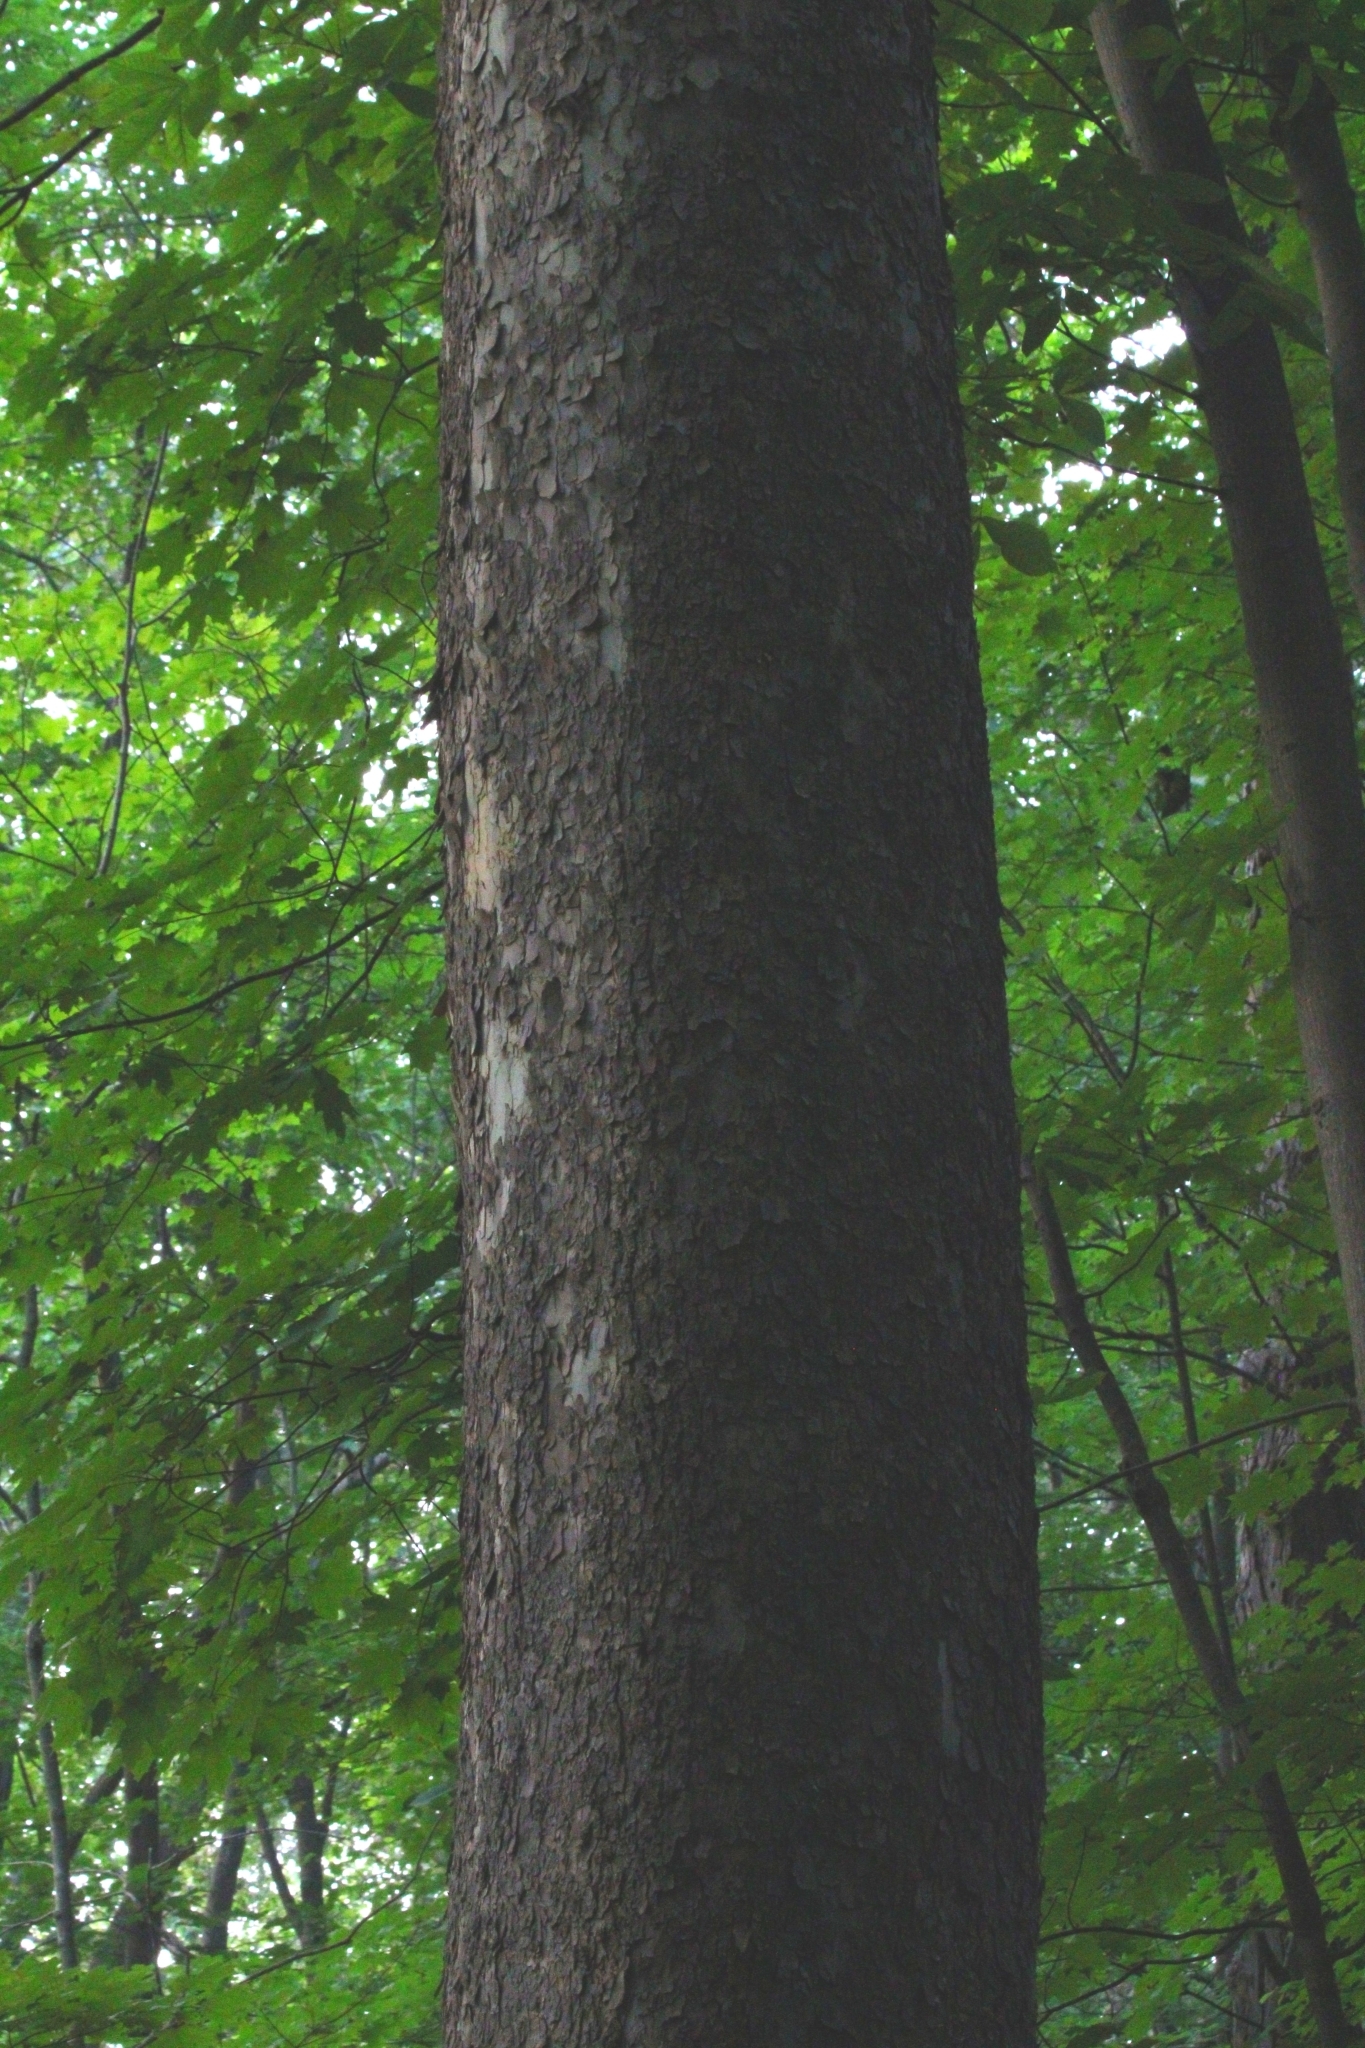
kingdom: Plantae
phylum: Tracheophyta
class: Magnoliopsida
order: Proteales
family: Platanaceae
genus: Platanus
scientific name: Platanus occidentalis
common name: American sycamore
